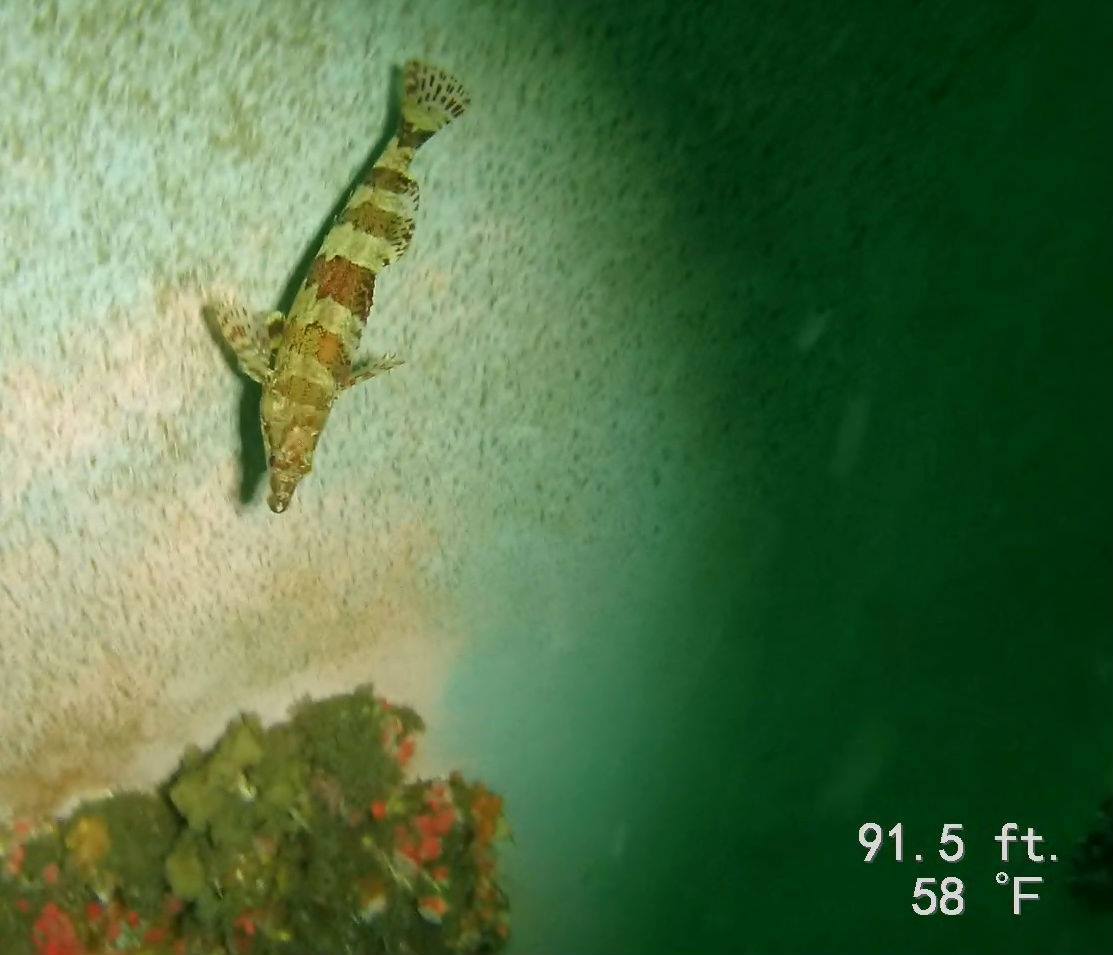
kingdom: Animalia
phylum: Chordata
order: Scorpaeniformes
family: Hexagrammidae
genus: Oxylebius
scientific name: Oxylebius pictus
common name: Painted greenling
